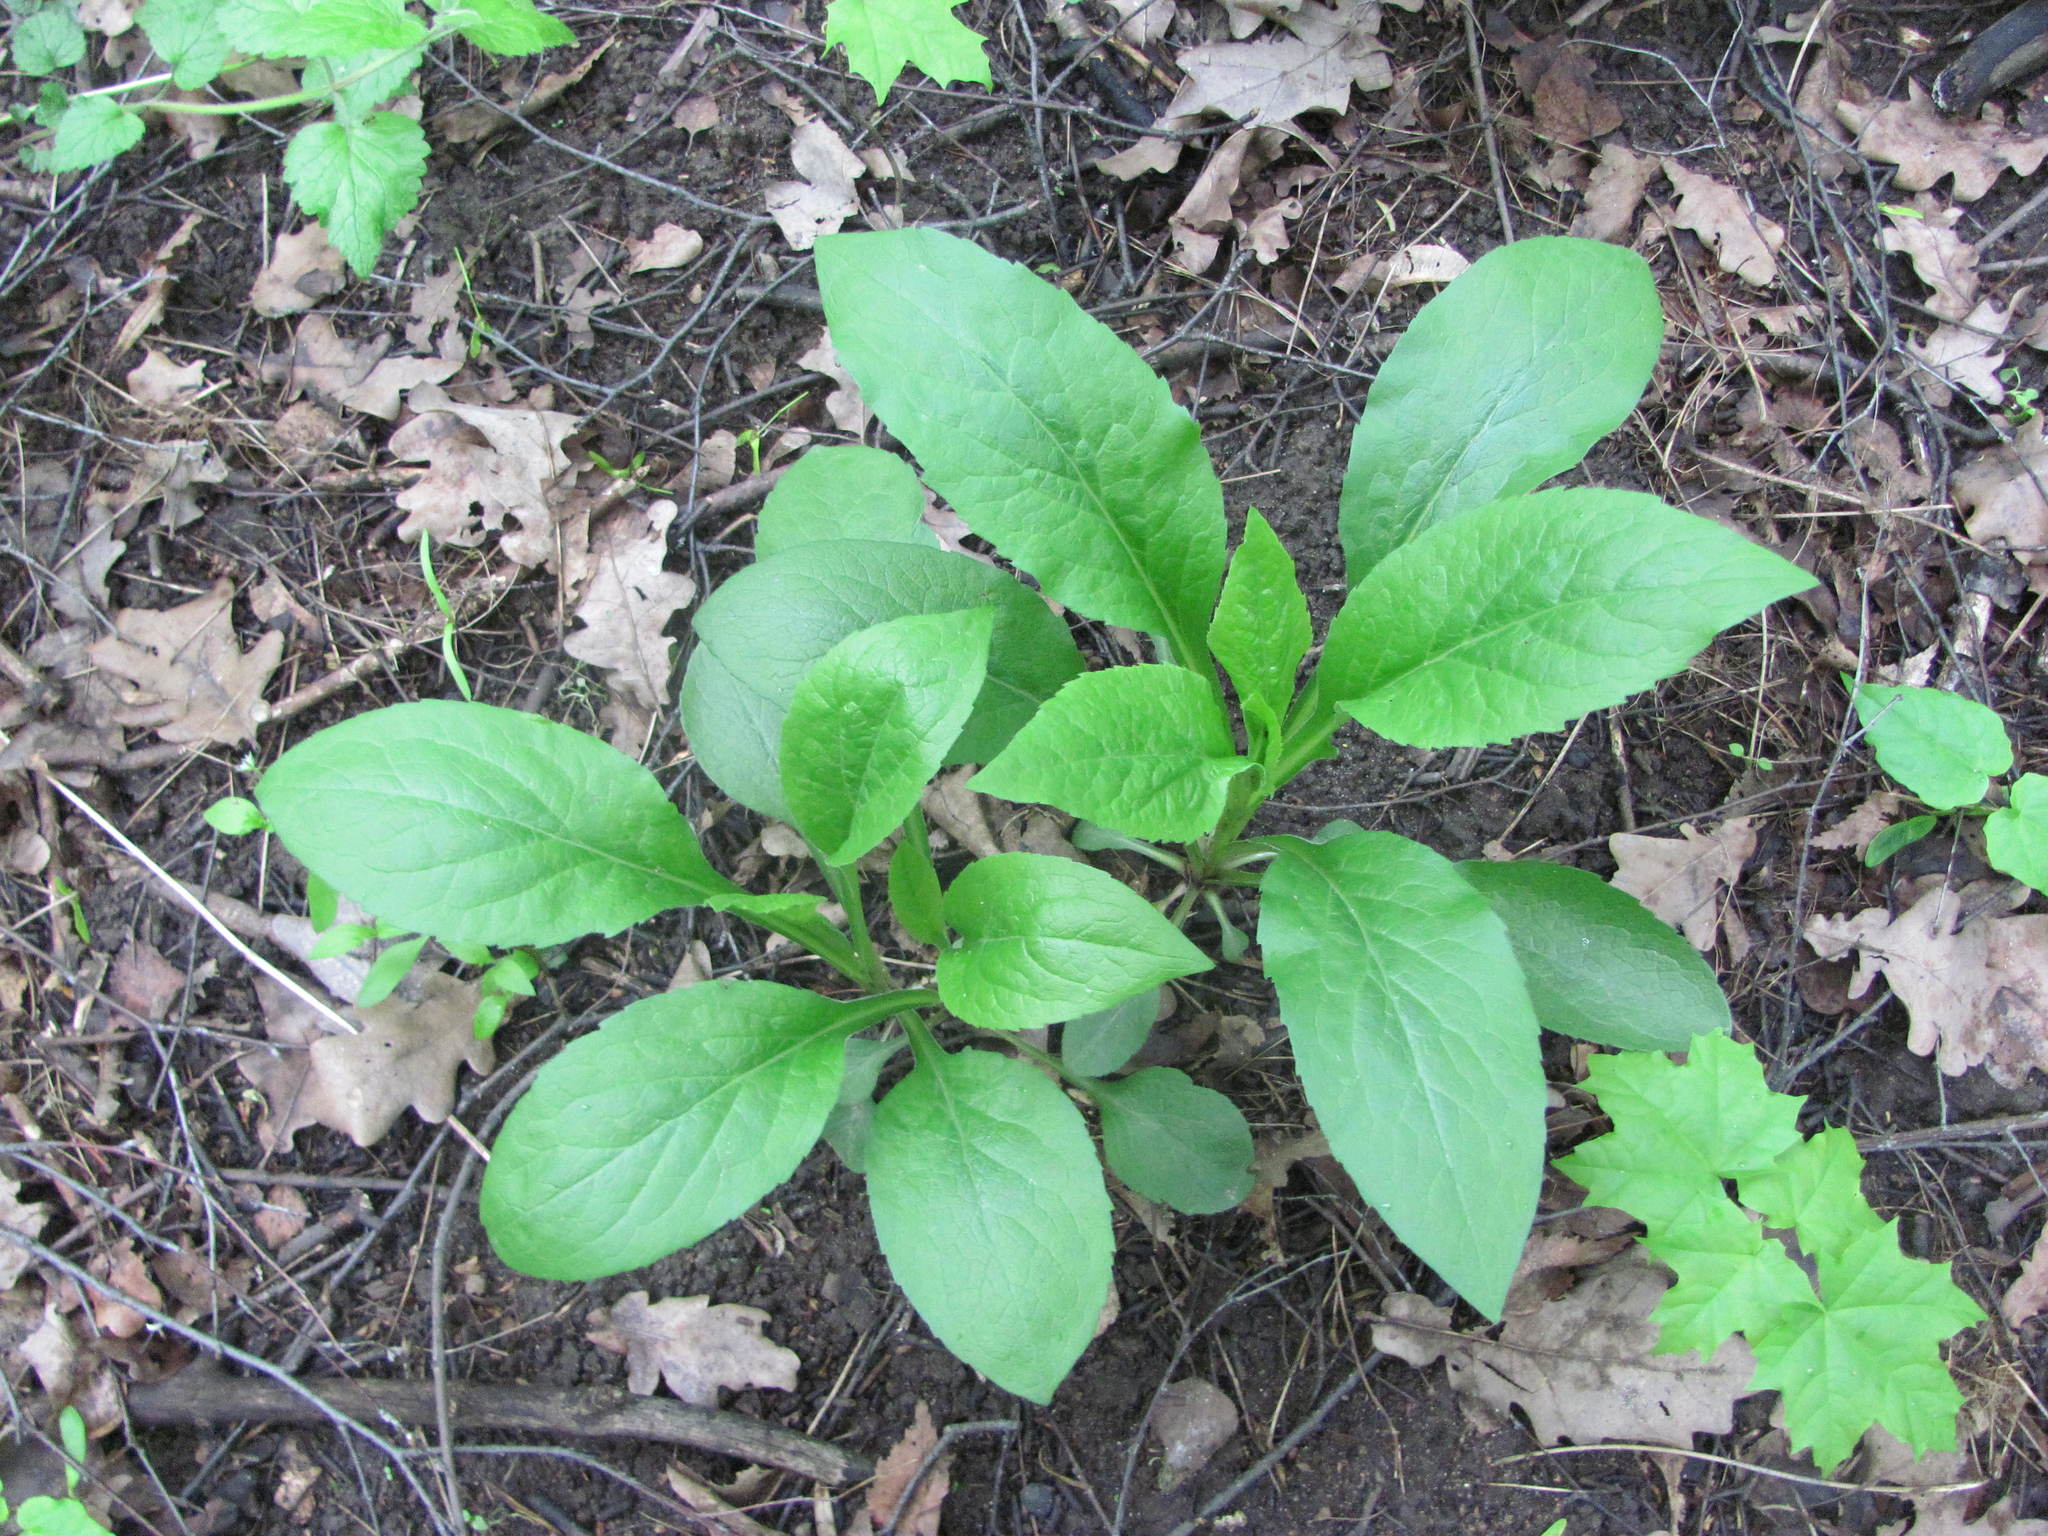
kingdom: Plantae
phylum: Tracheophyta
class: Magnoliopsida
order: Asterales
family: Asteraceae
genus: Solidago
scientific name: Solidago virgaurea
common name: Goldenrod
